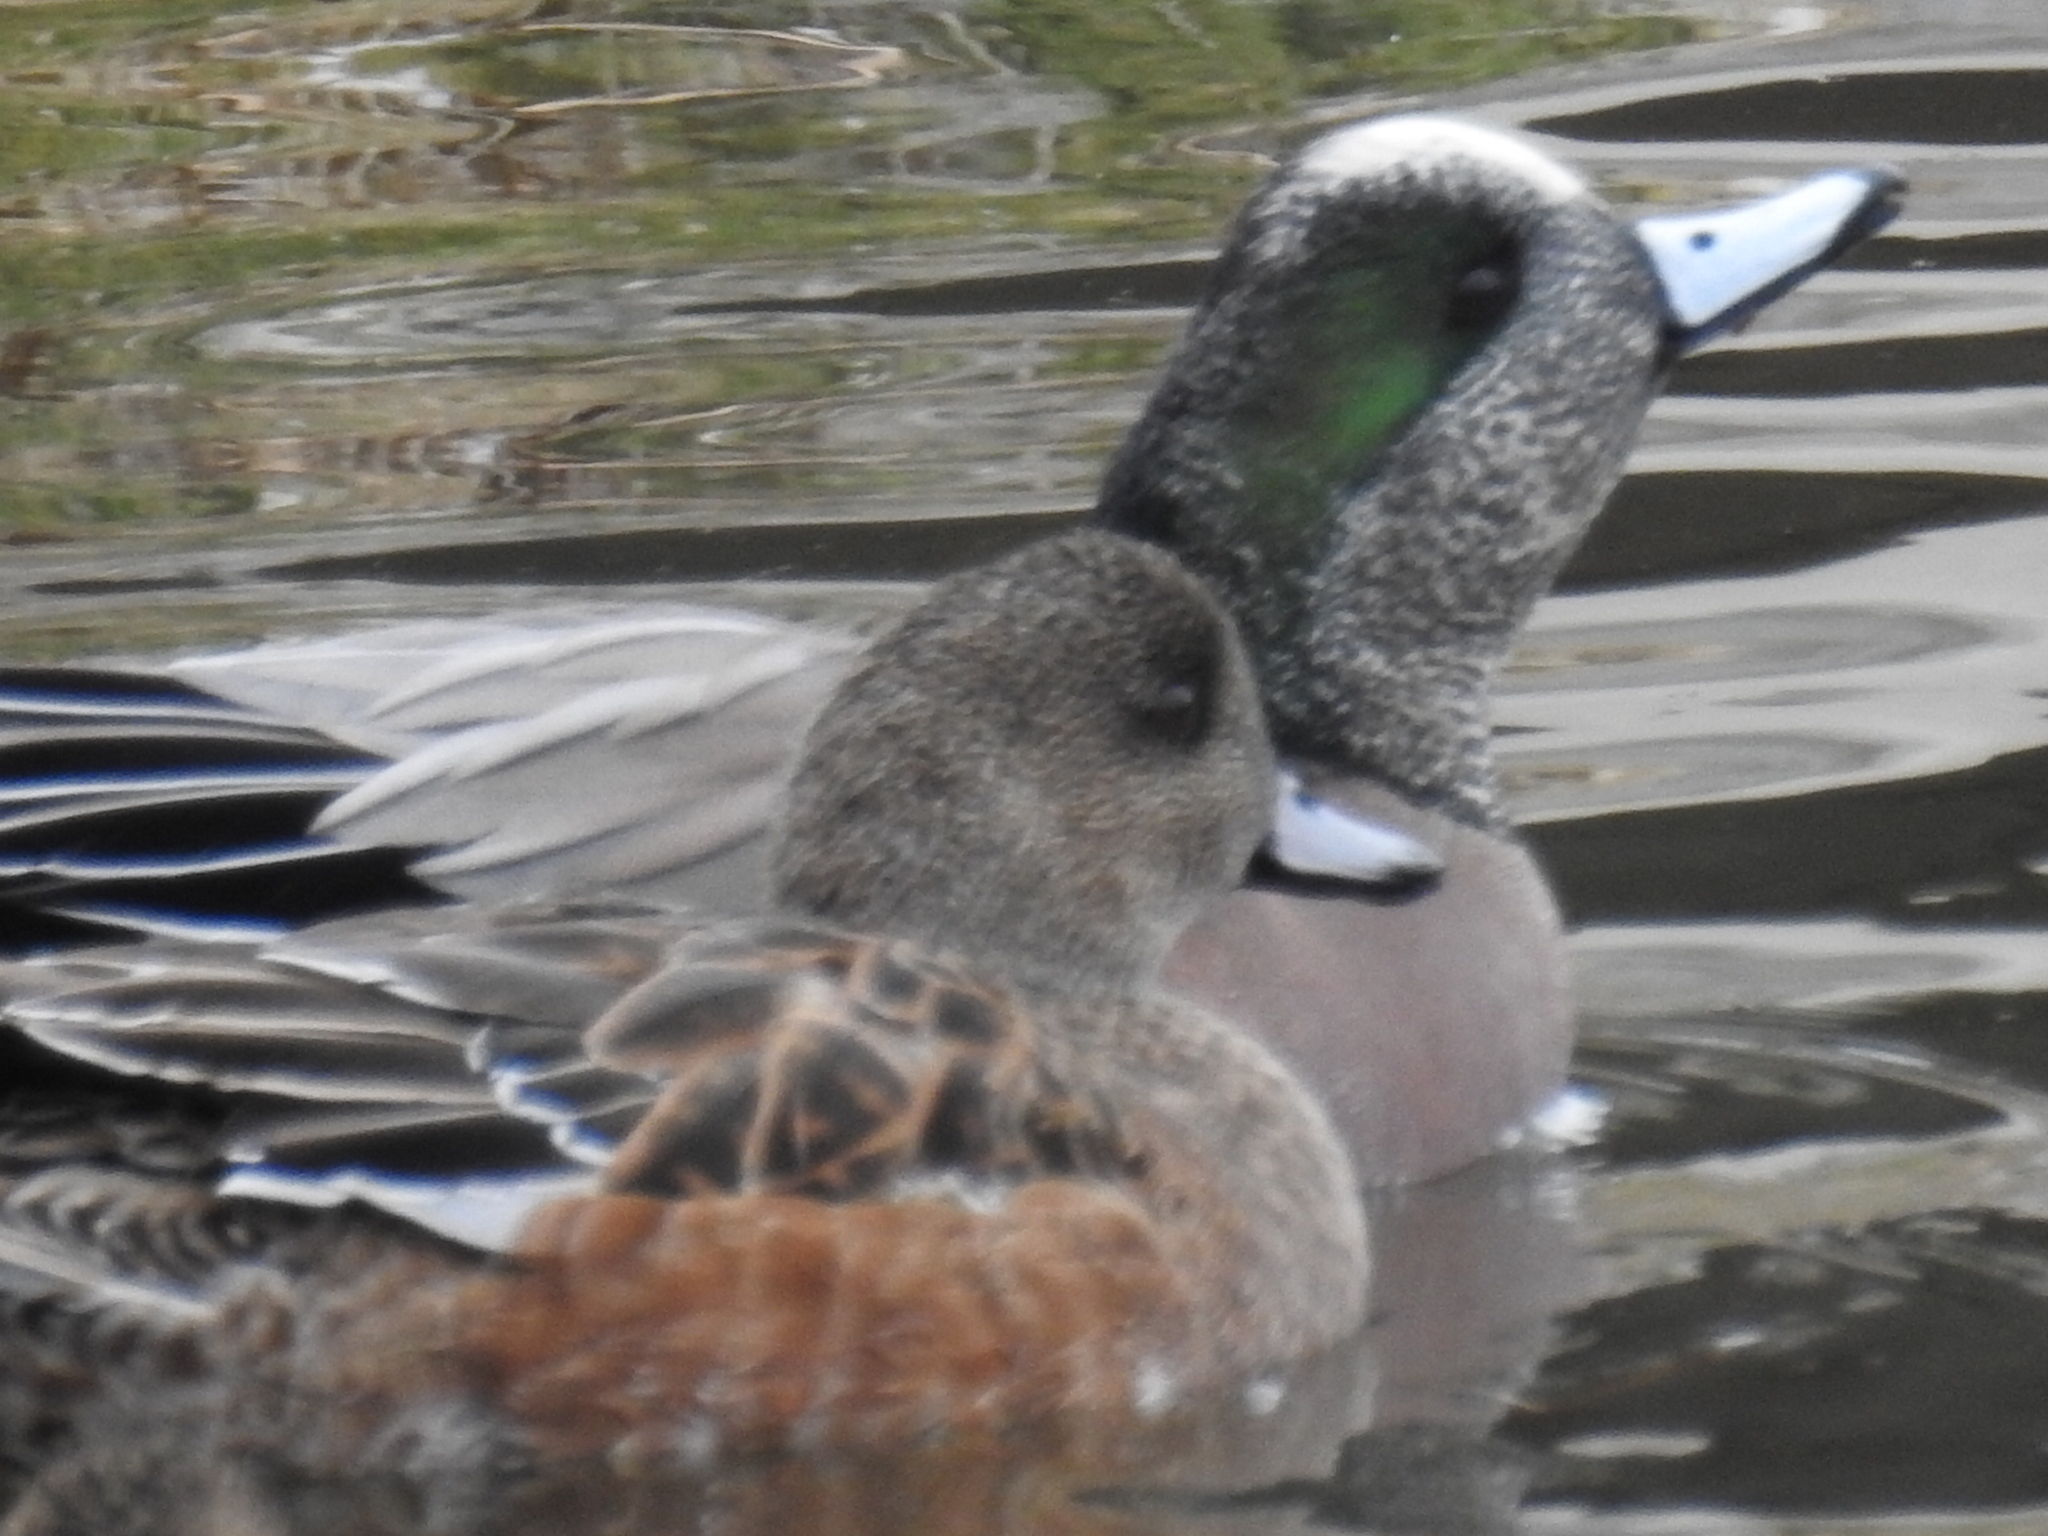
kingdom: Animalia
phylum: Chordata
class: Aves
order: Anseriformes
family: Anatidae
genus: Mareca
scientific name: Mareca americana
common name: American wigeon
